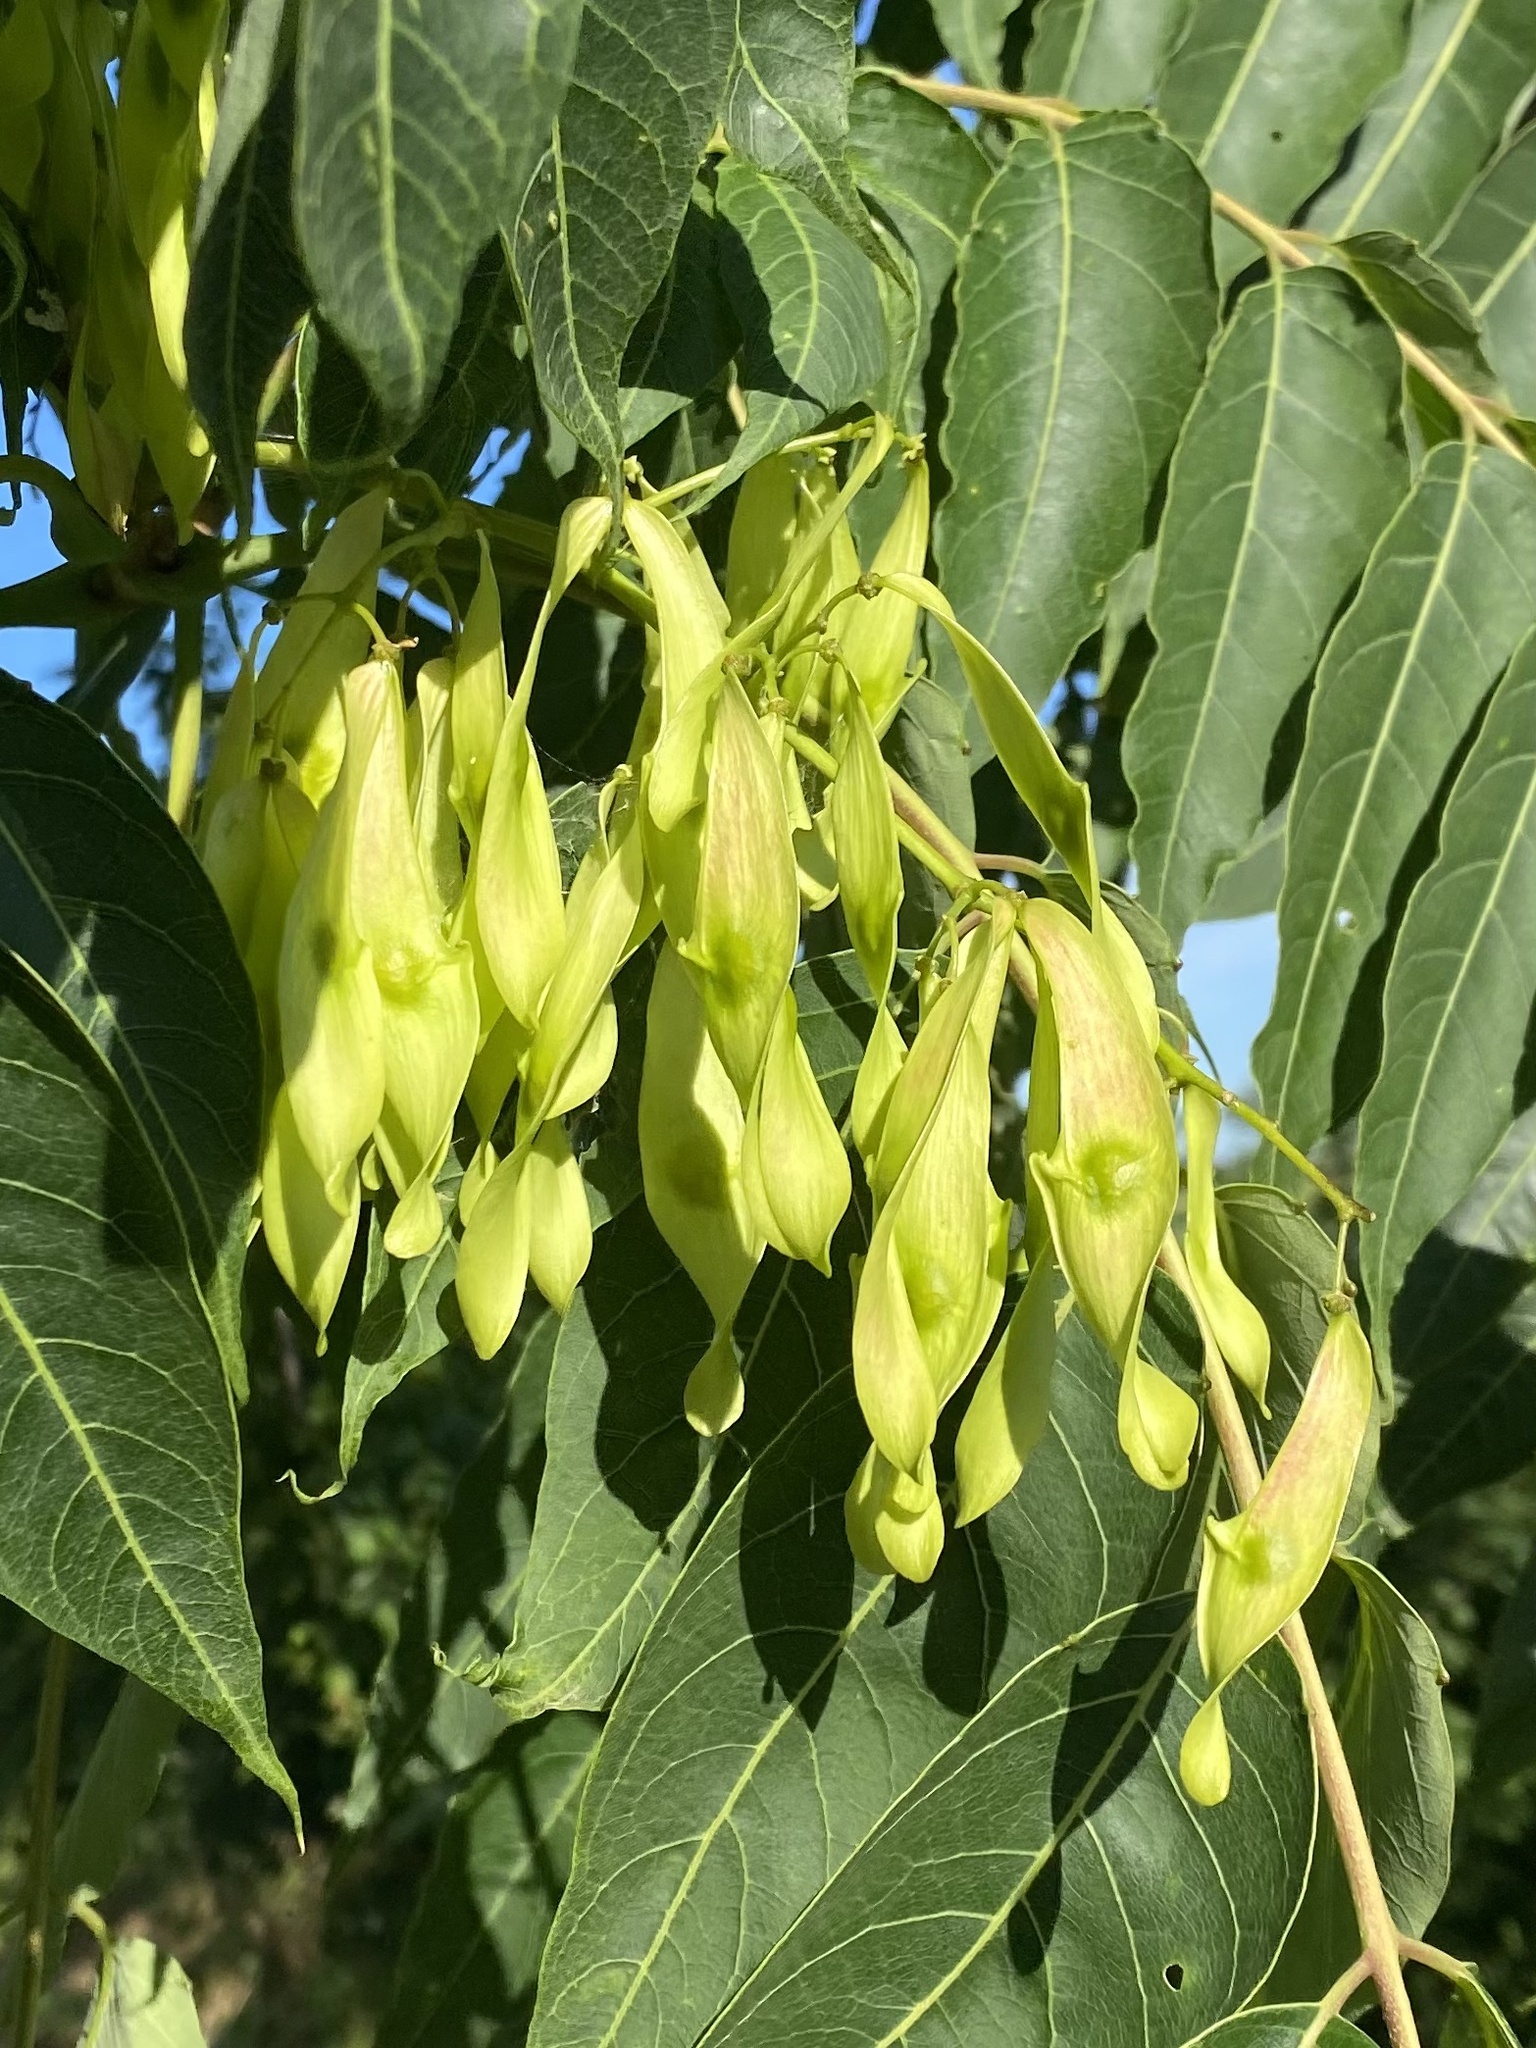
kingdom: Plantae
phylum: Tracheophyta
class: Magnoliopsida
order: Sapindales
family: Simaroubaceae
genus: Ailanthus
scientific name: Ailanthus altissima
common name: Tree-of-heaven
